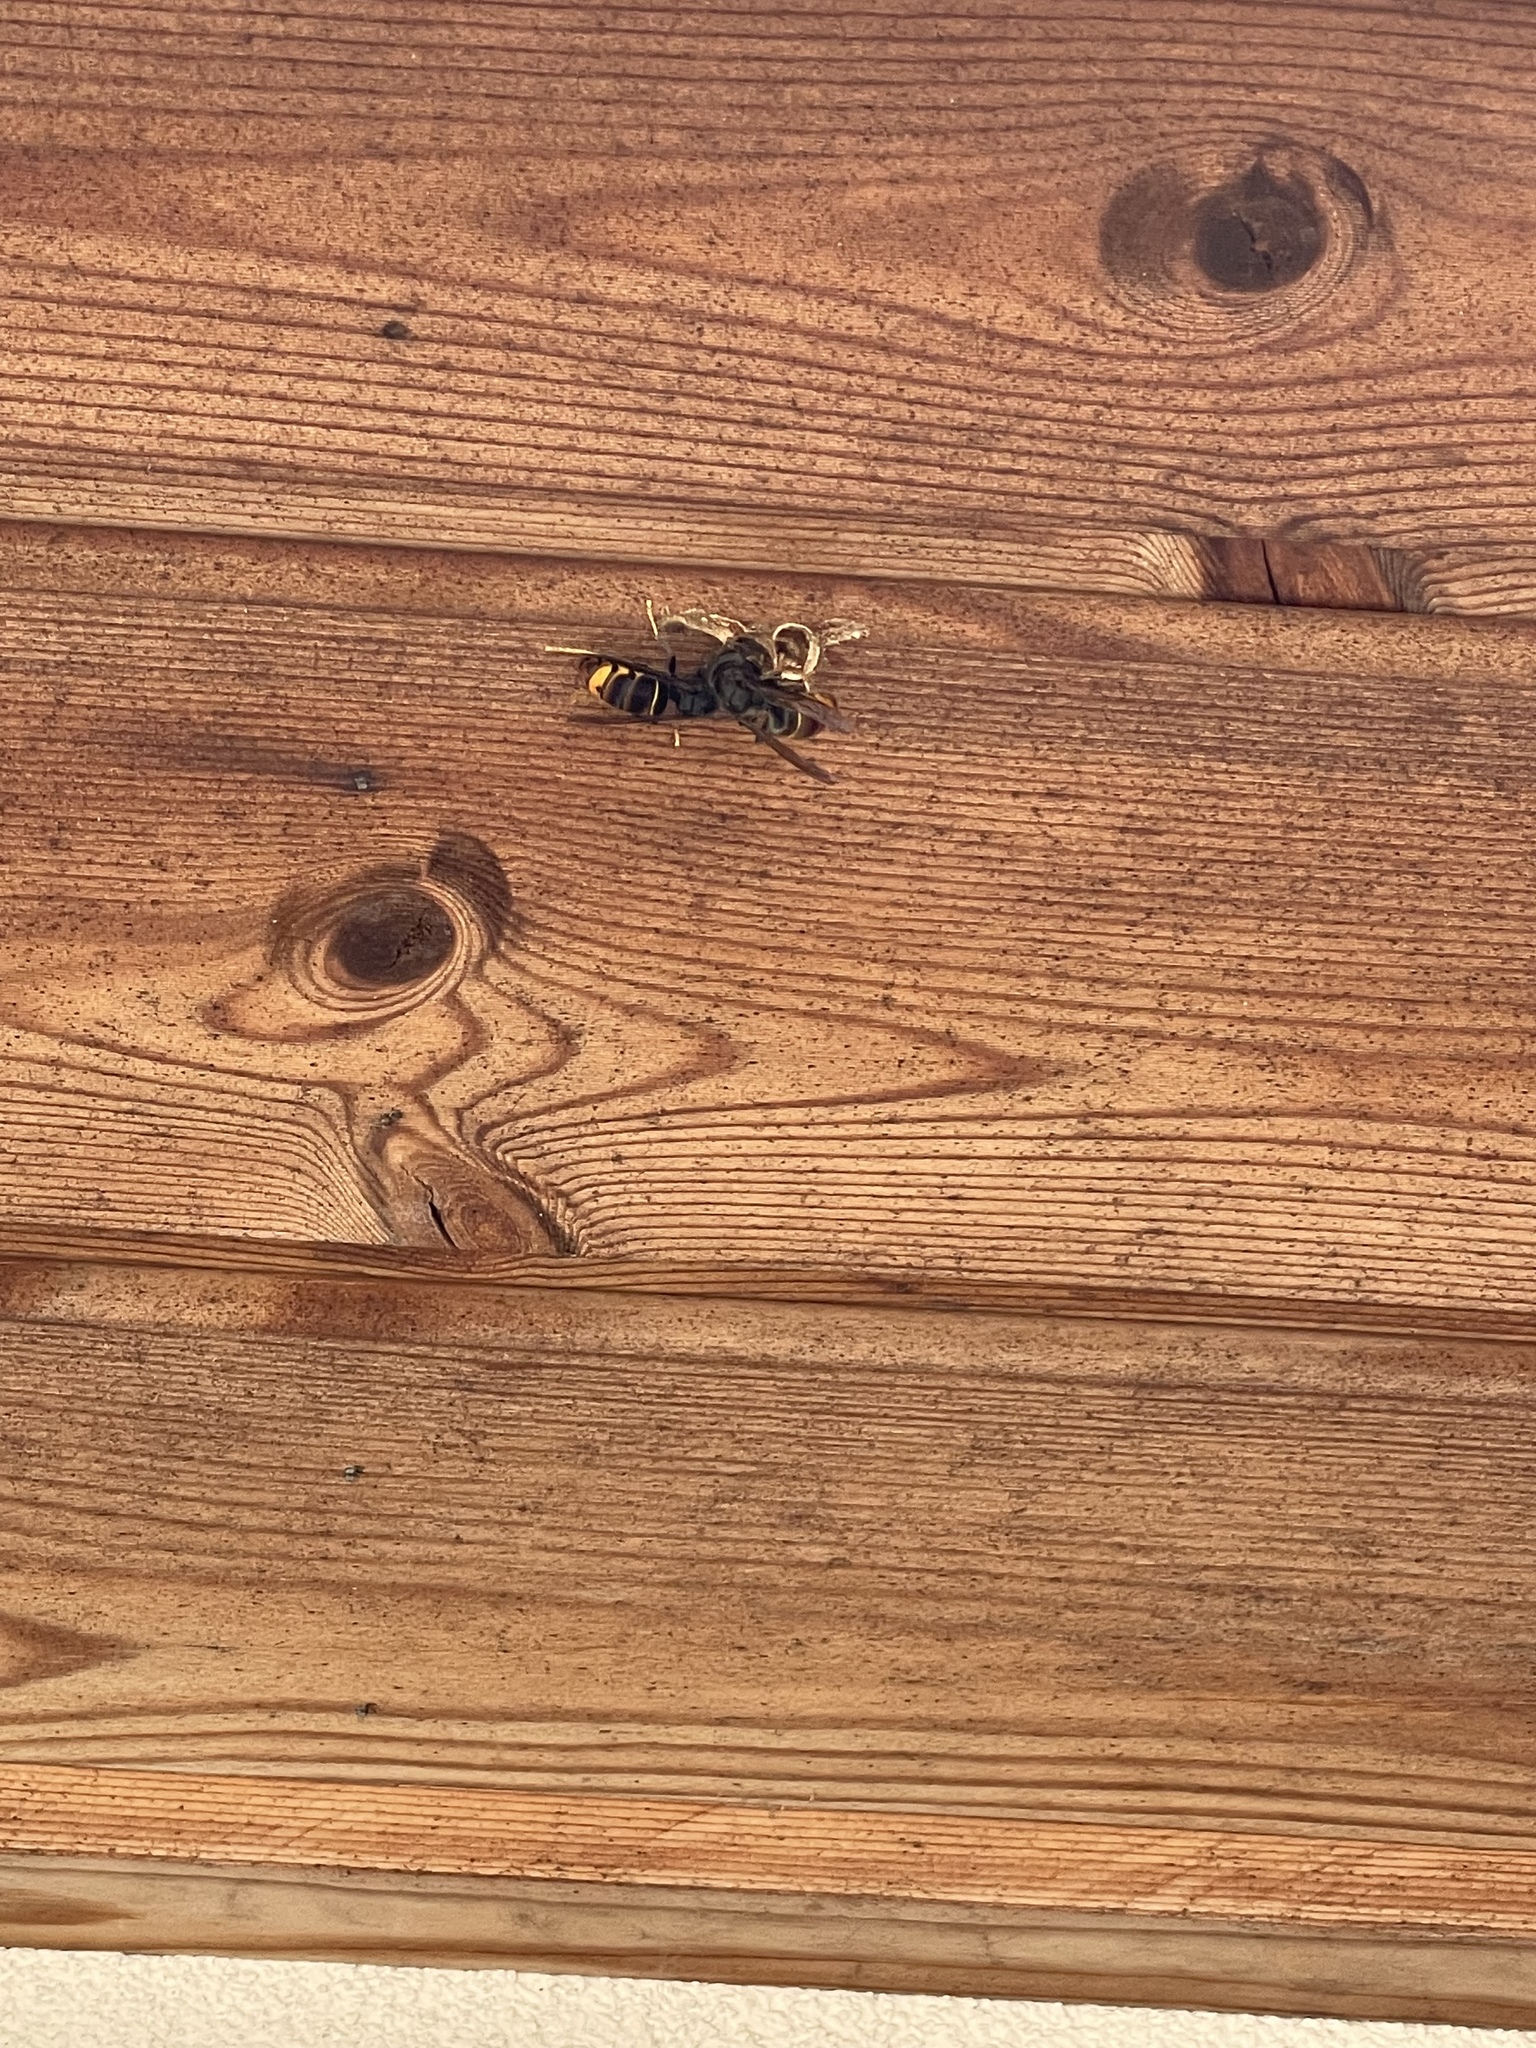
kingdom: Animalia
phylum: Arthropoda
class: Insecta
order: Hymenoptera
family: Vespidae
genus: Vespa
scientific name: Vespa velutina
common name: Asian hornet
